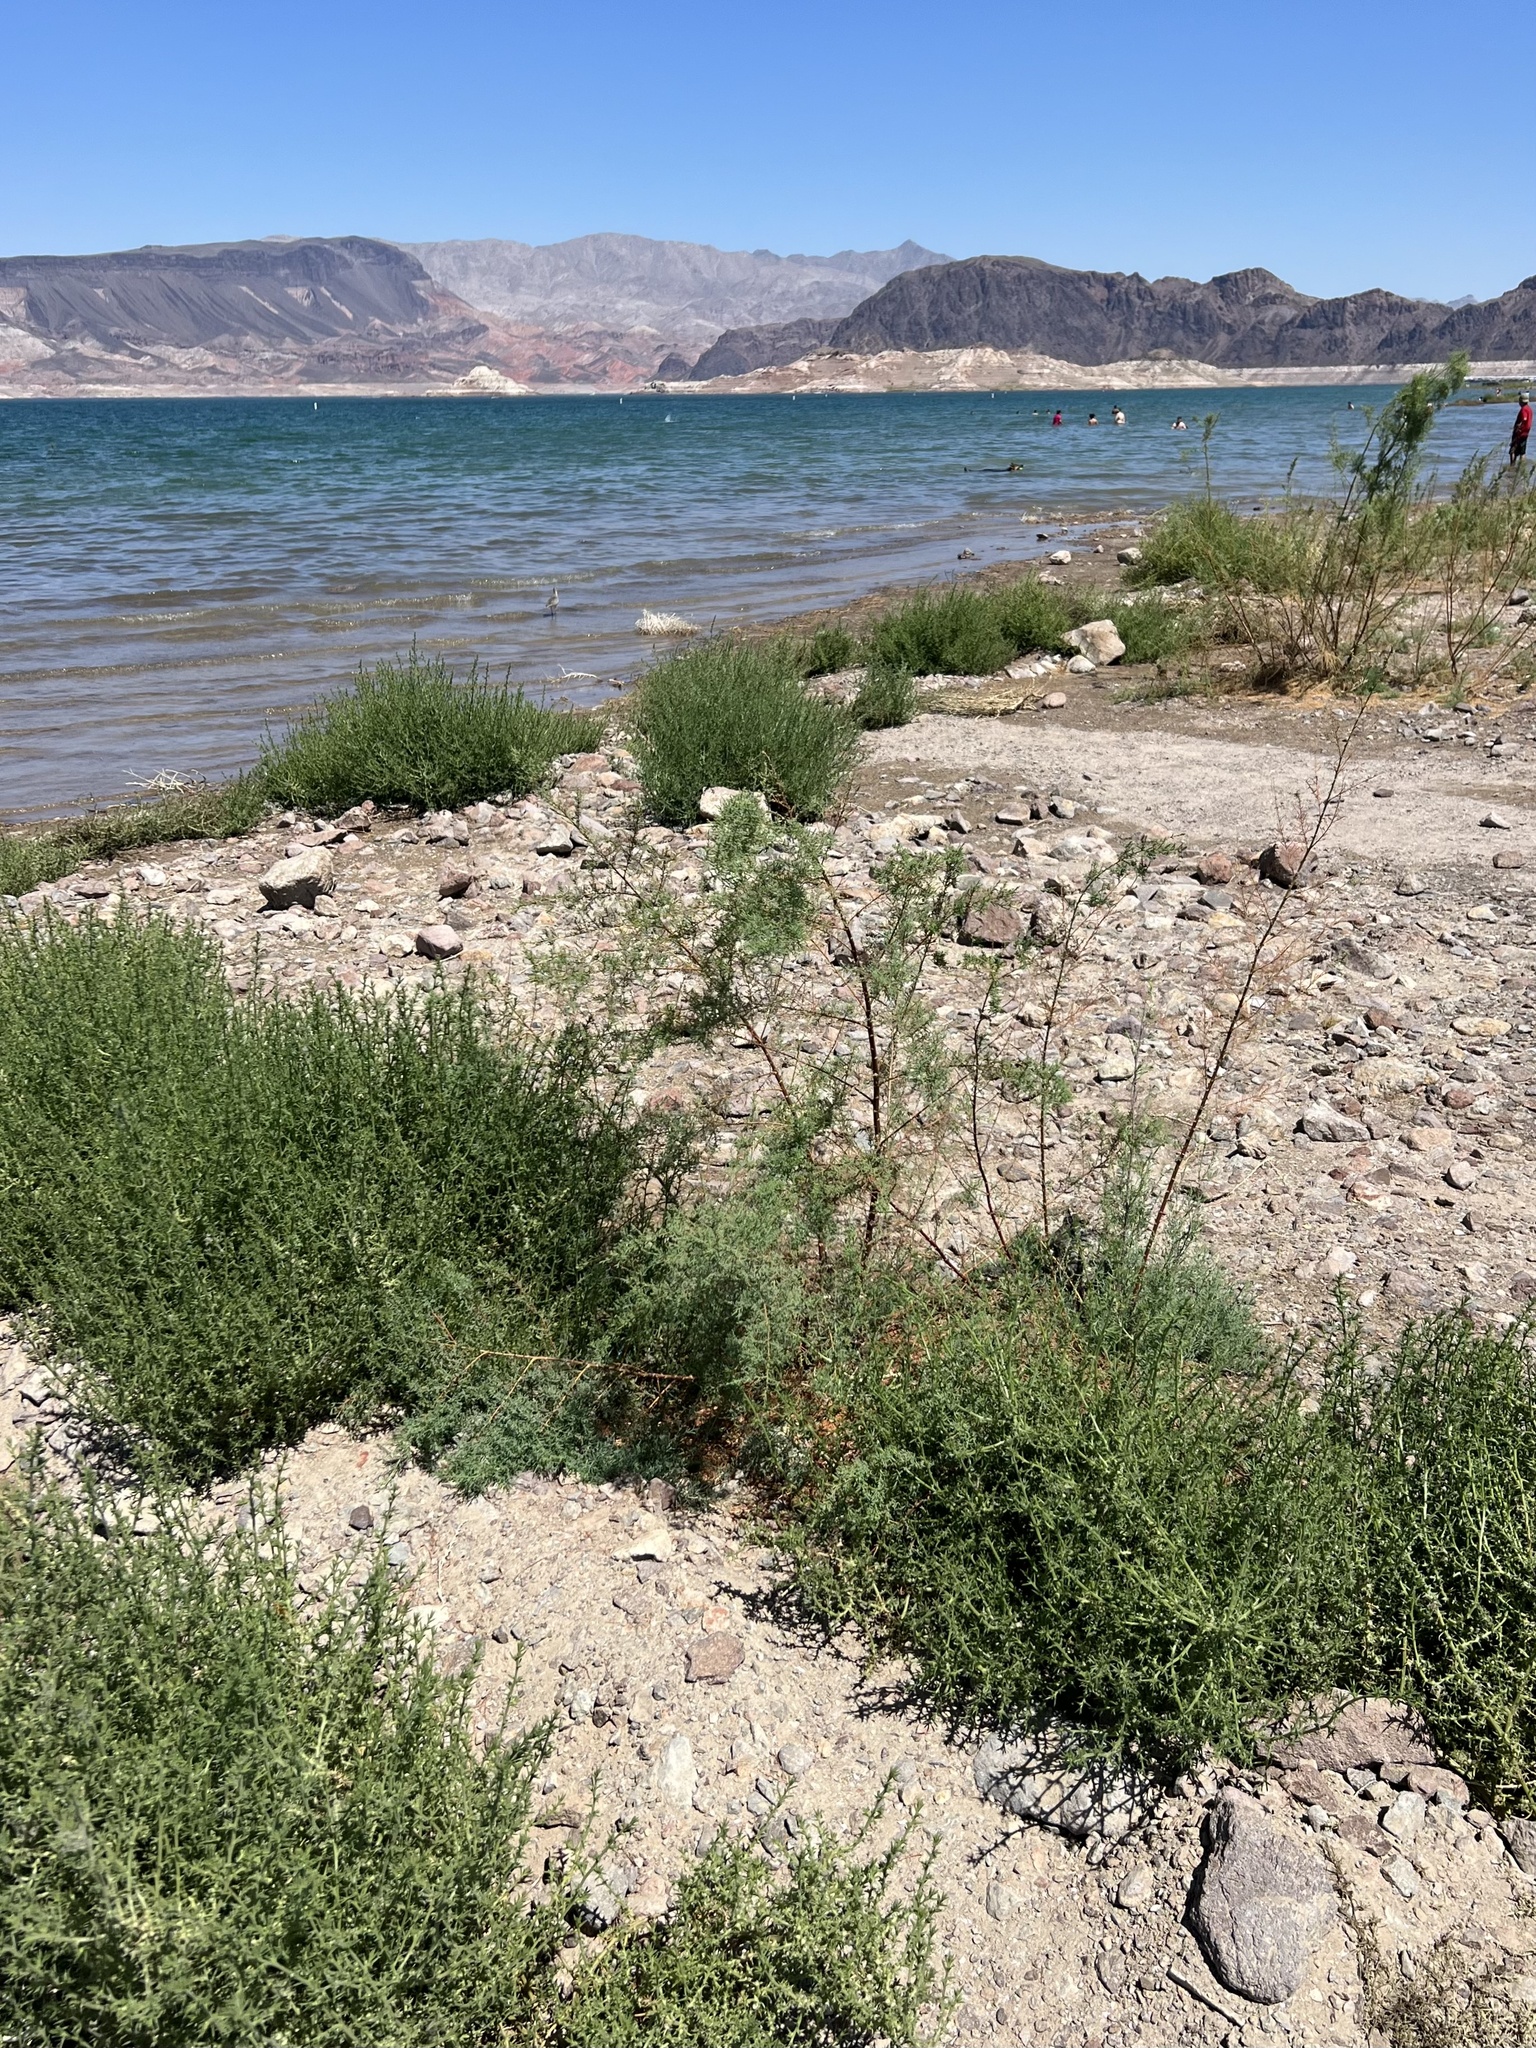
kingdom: Plantae
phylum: Tracheophyta
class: Magnoliopsida
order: Caryophyllales
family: Tamaricaceae
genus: Tamarix
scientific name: Tamarix ramosissima
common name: Pink tamarisk
